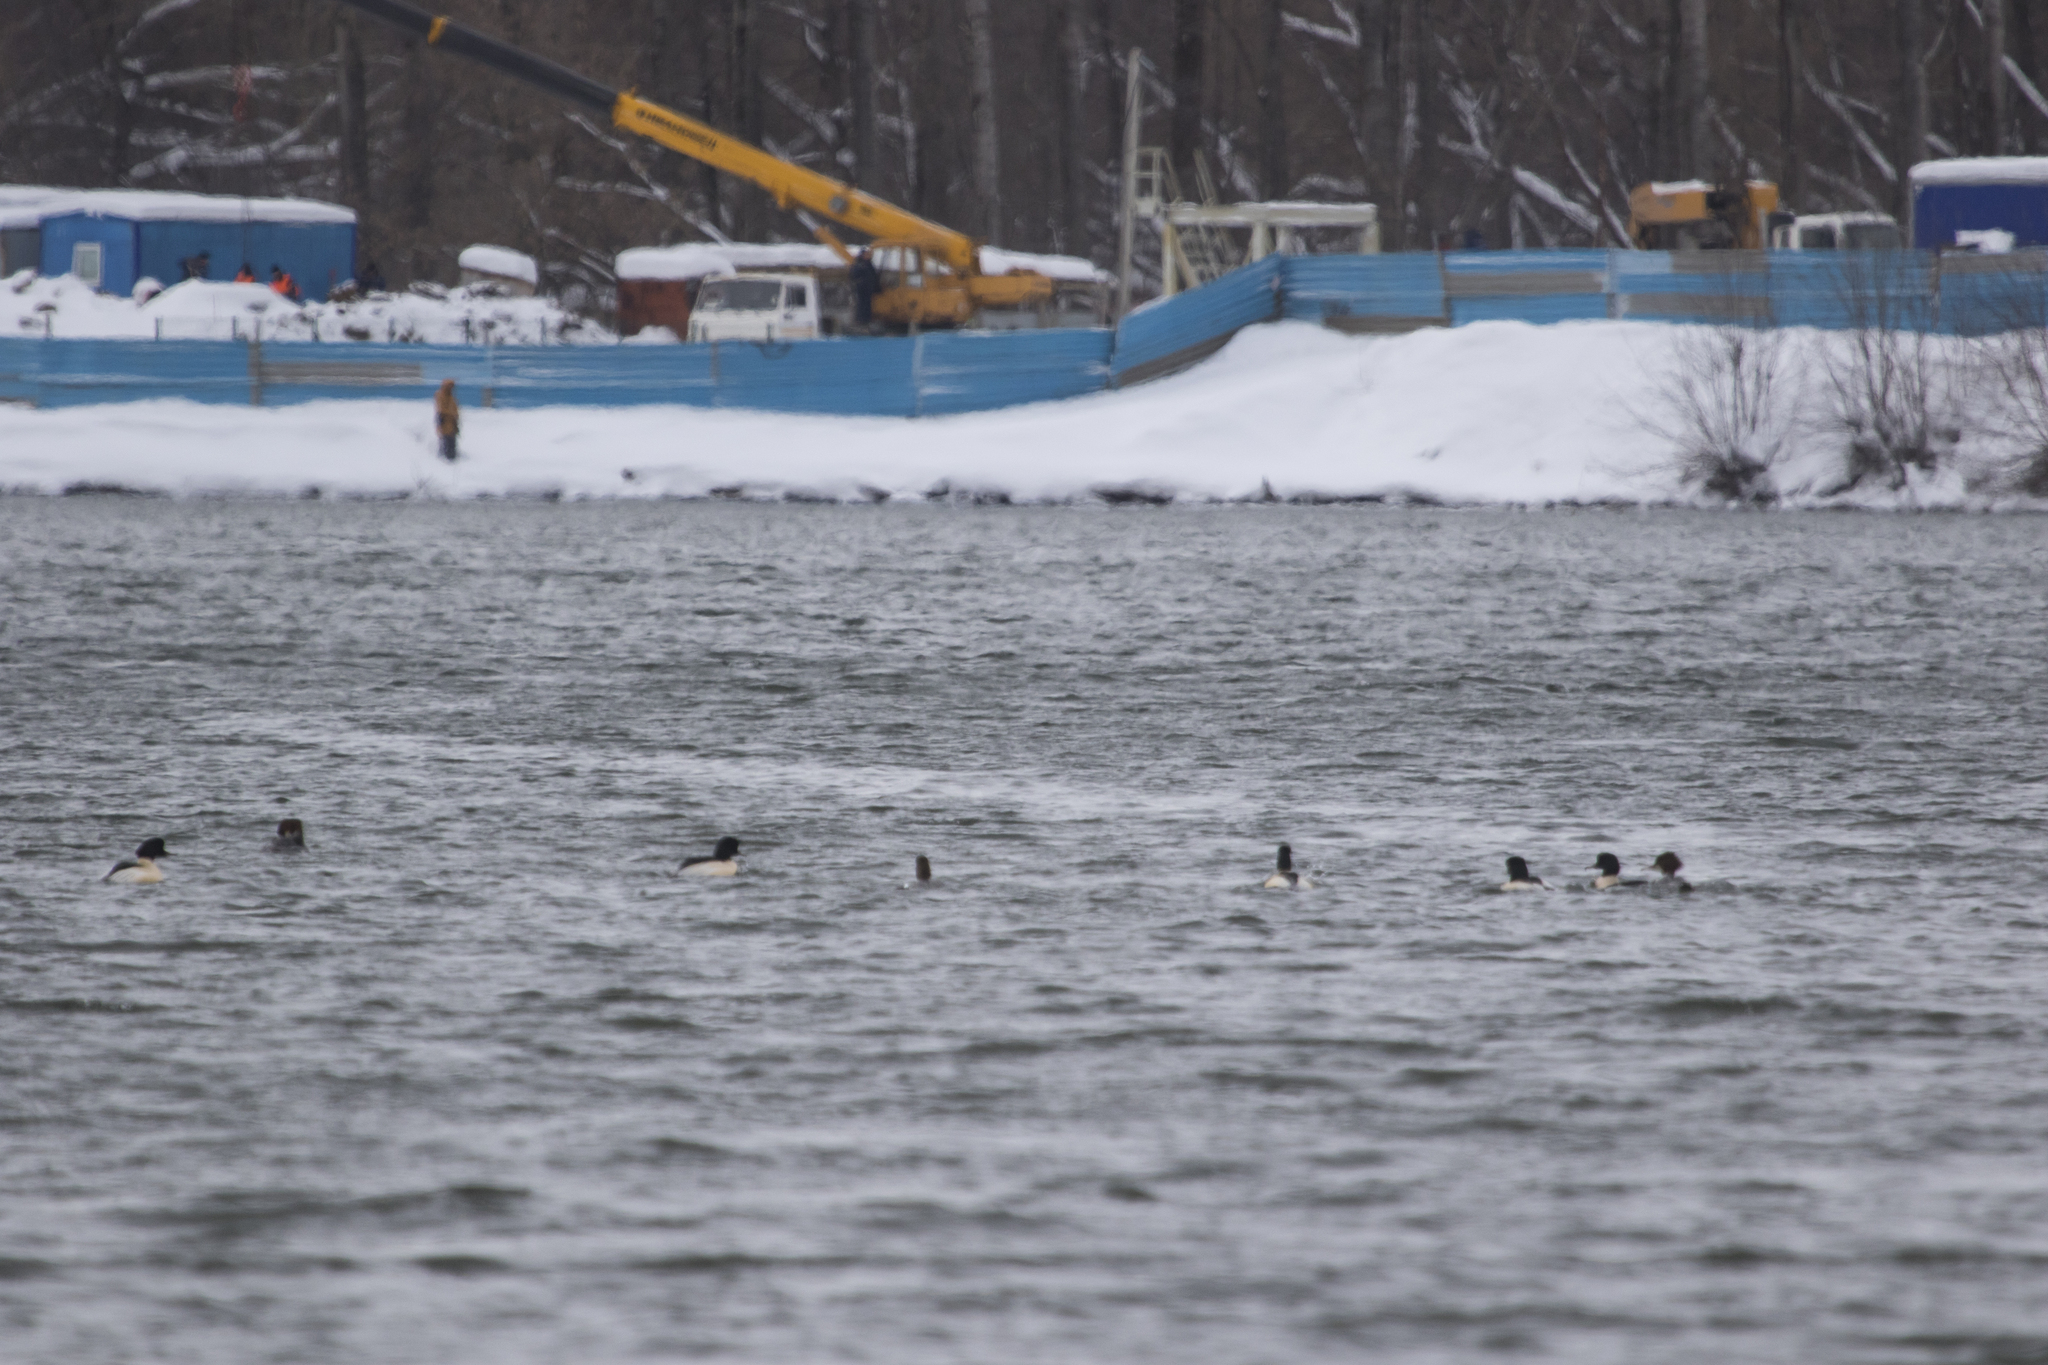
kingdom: Animalia
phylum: Chordata
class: Aves
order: Anseriformes
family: Anatidae
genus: Mergus
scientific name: Mergus merganser
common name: Common merganser
